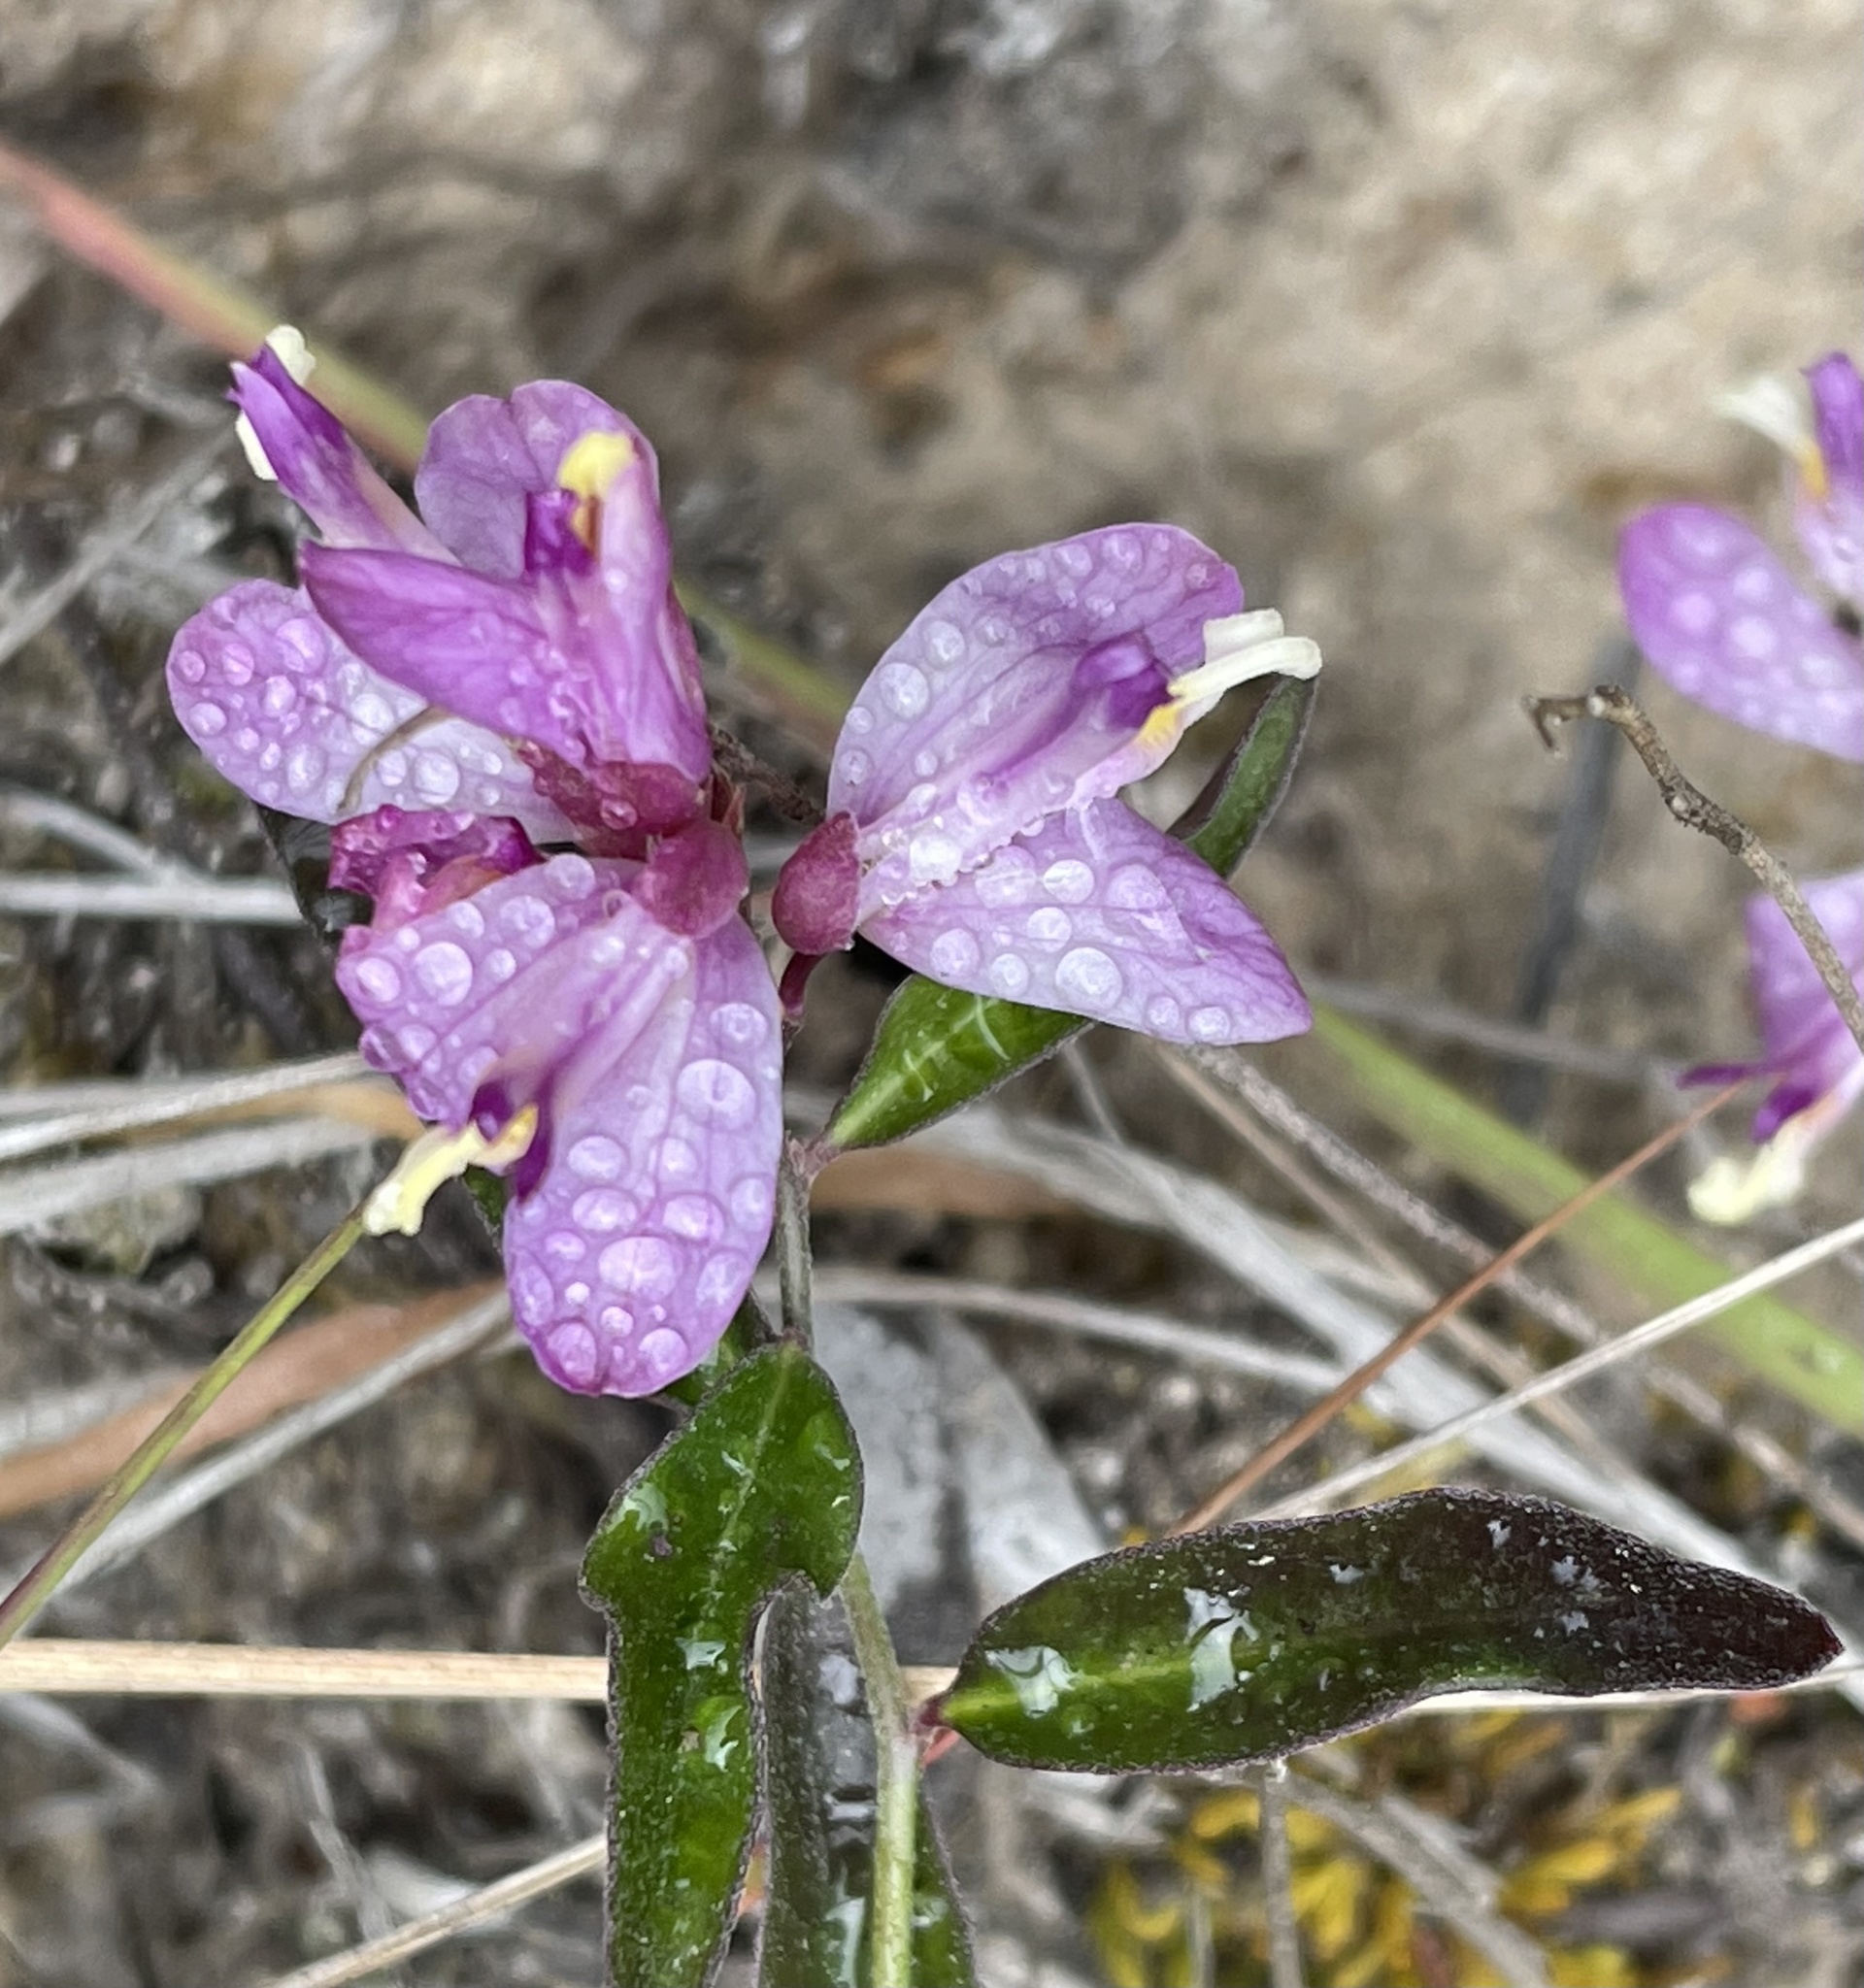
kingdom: Plantae
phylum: Tracheophyta
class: Magnoliopsida
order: Fabales
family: Polygalaceae
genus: Rhinotropis
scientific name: Rhinotropis californica
